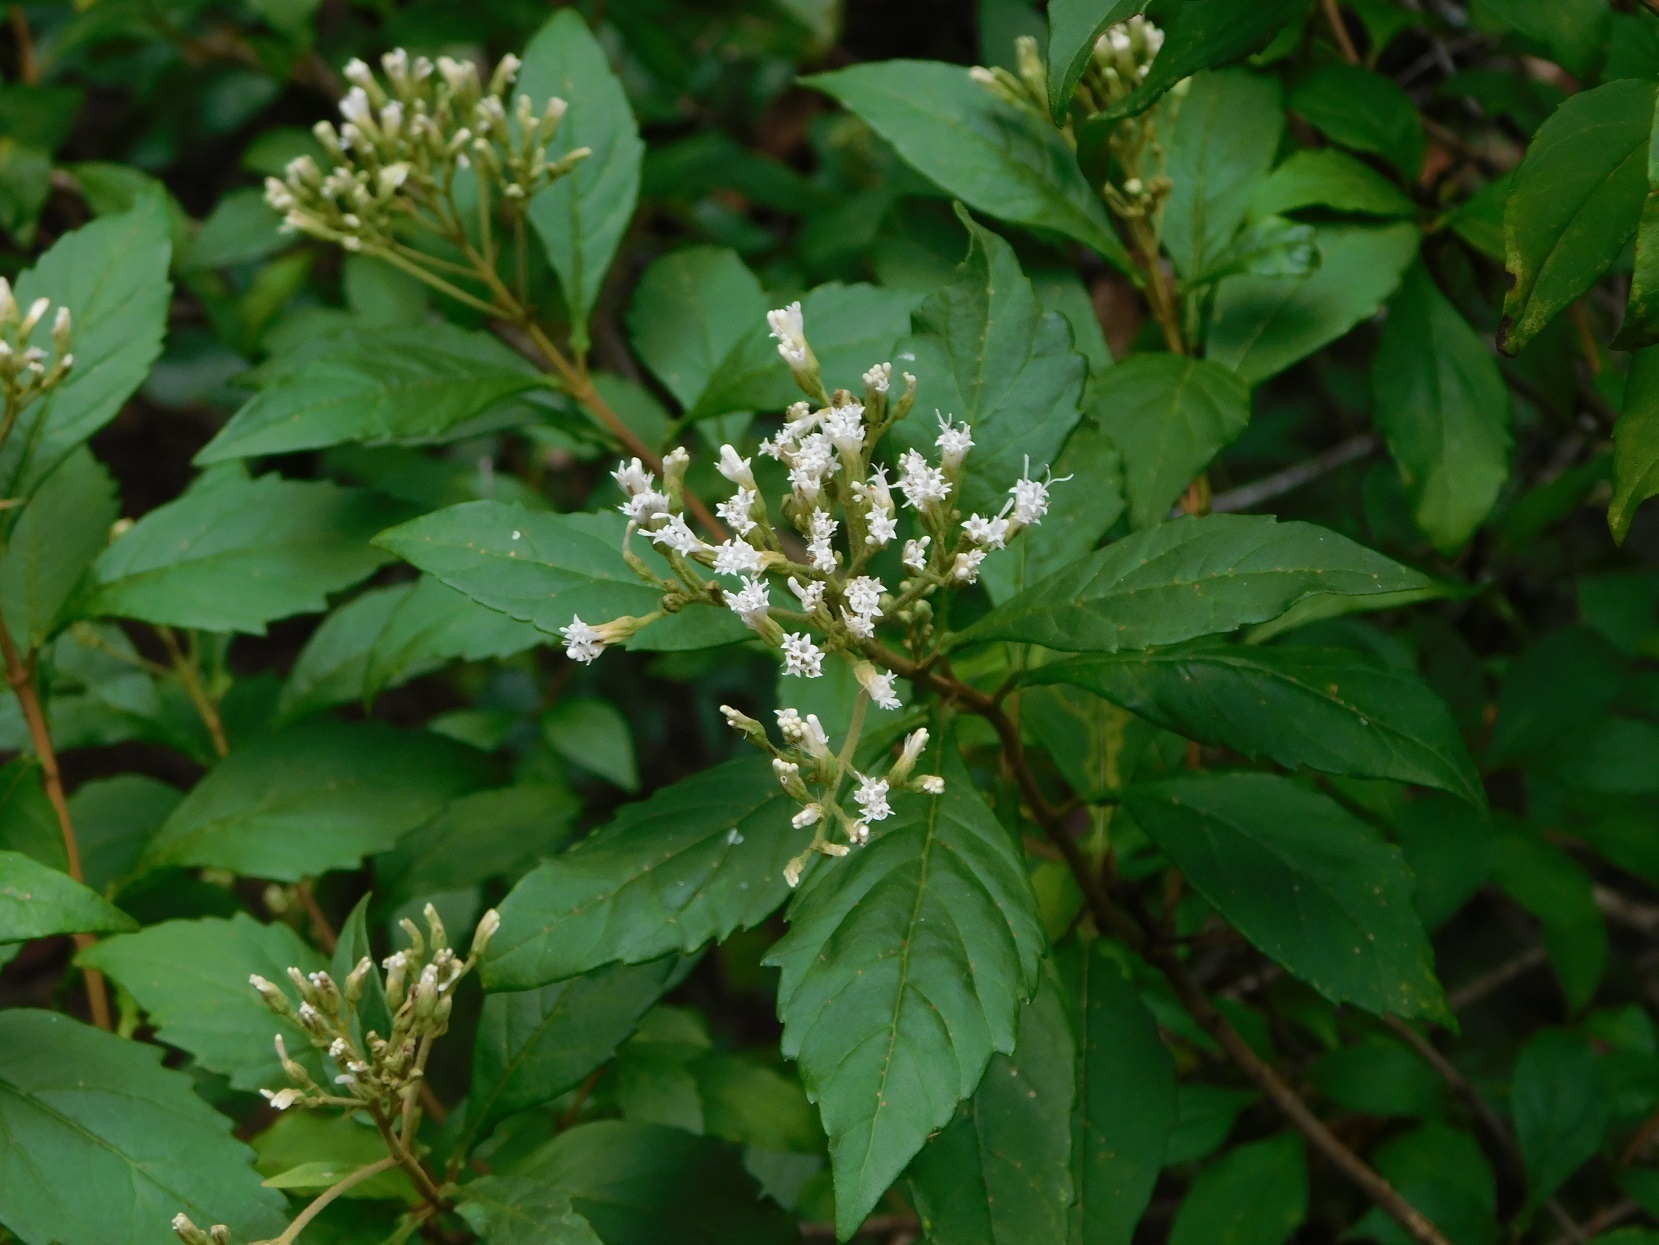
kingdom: Plantae
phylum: Tracheophyta
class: Magnoliopsida
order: Asterales
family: Asteraceae
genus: Ageratina
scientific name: Ageratina ligustrina
